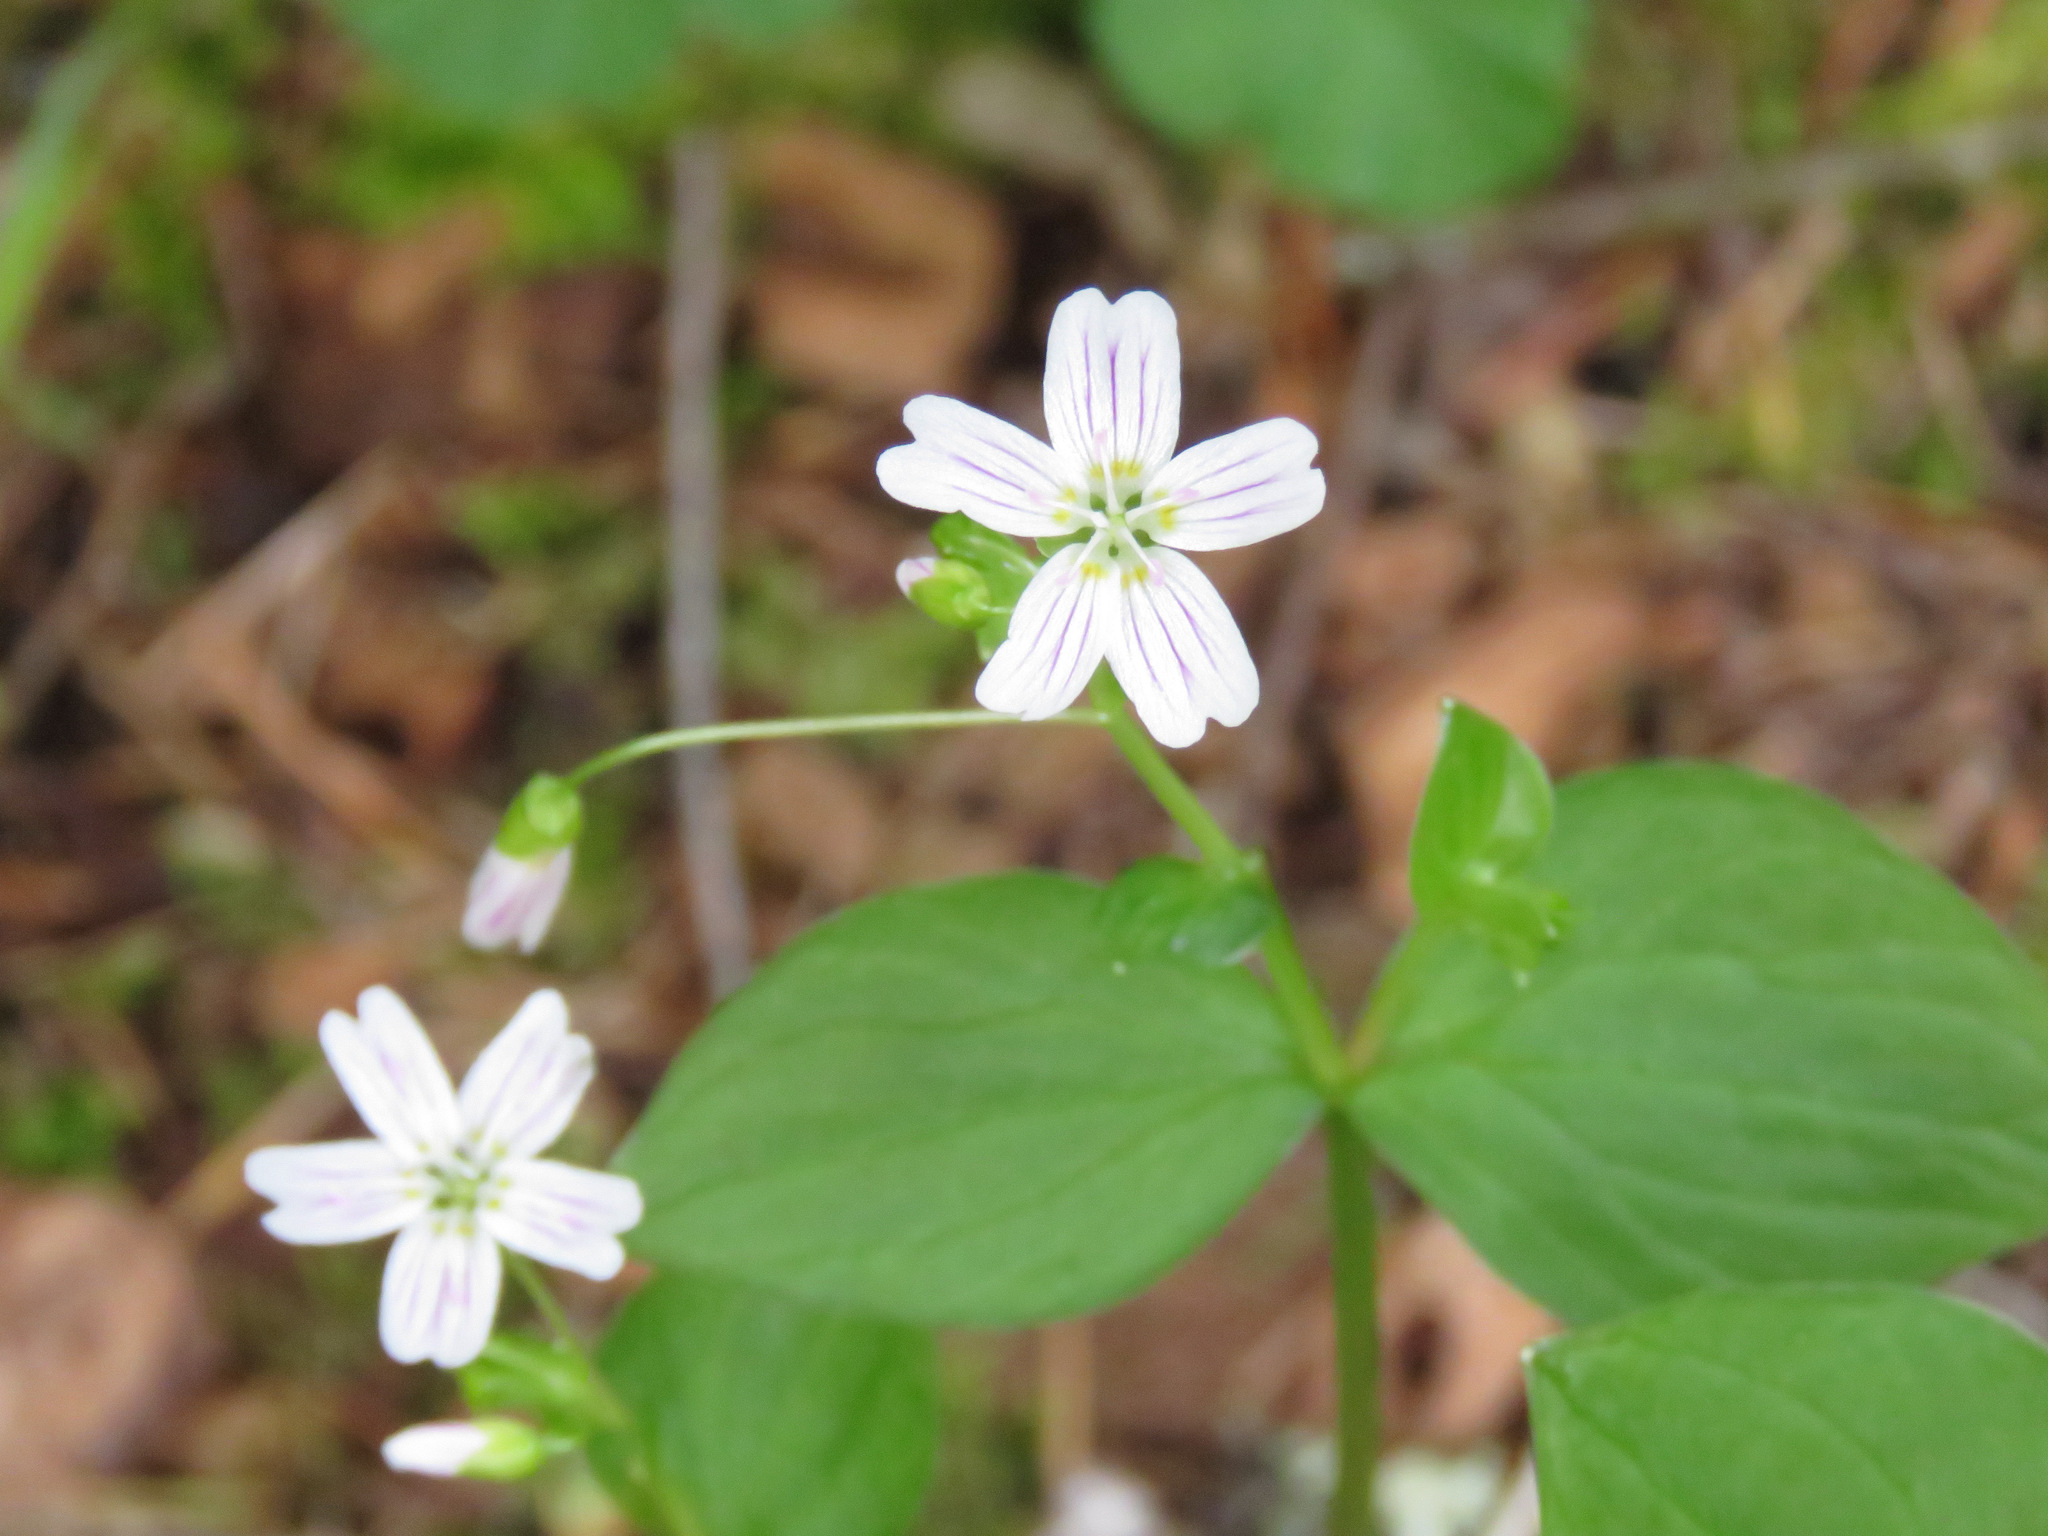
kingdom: Plantae
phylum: Tracheophyta
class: Magnoliopsida
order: Caryophyllales
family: Montiaceae
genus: Claytonia
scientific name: Claytonia sibirica
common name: Pink purslane
